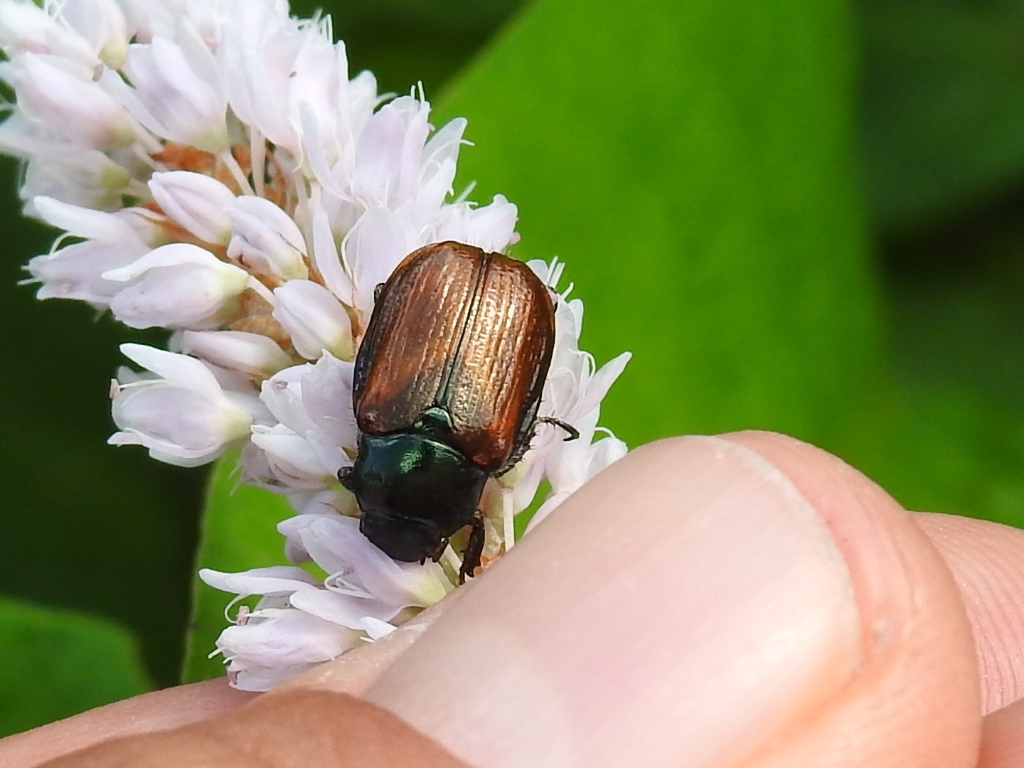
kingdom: Animalia
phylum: Arthropoda
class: Insecta
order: Coleoptera
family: Scarabaeidae
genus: Phyllopertha
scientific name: Phyllopertha horticola
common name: Garden chafer
